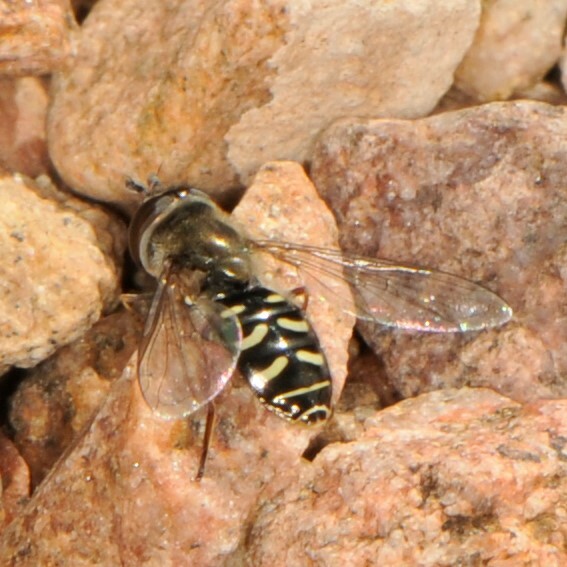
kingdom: Animalia
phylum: Arthropoda
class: Insecta
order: Diptera
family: Syrphidae
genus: Eupeodes
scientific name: Eupeodes volucris
